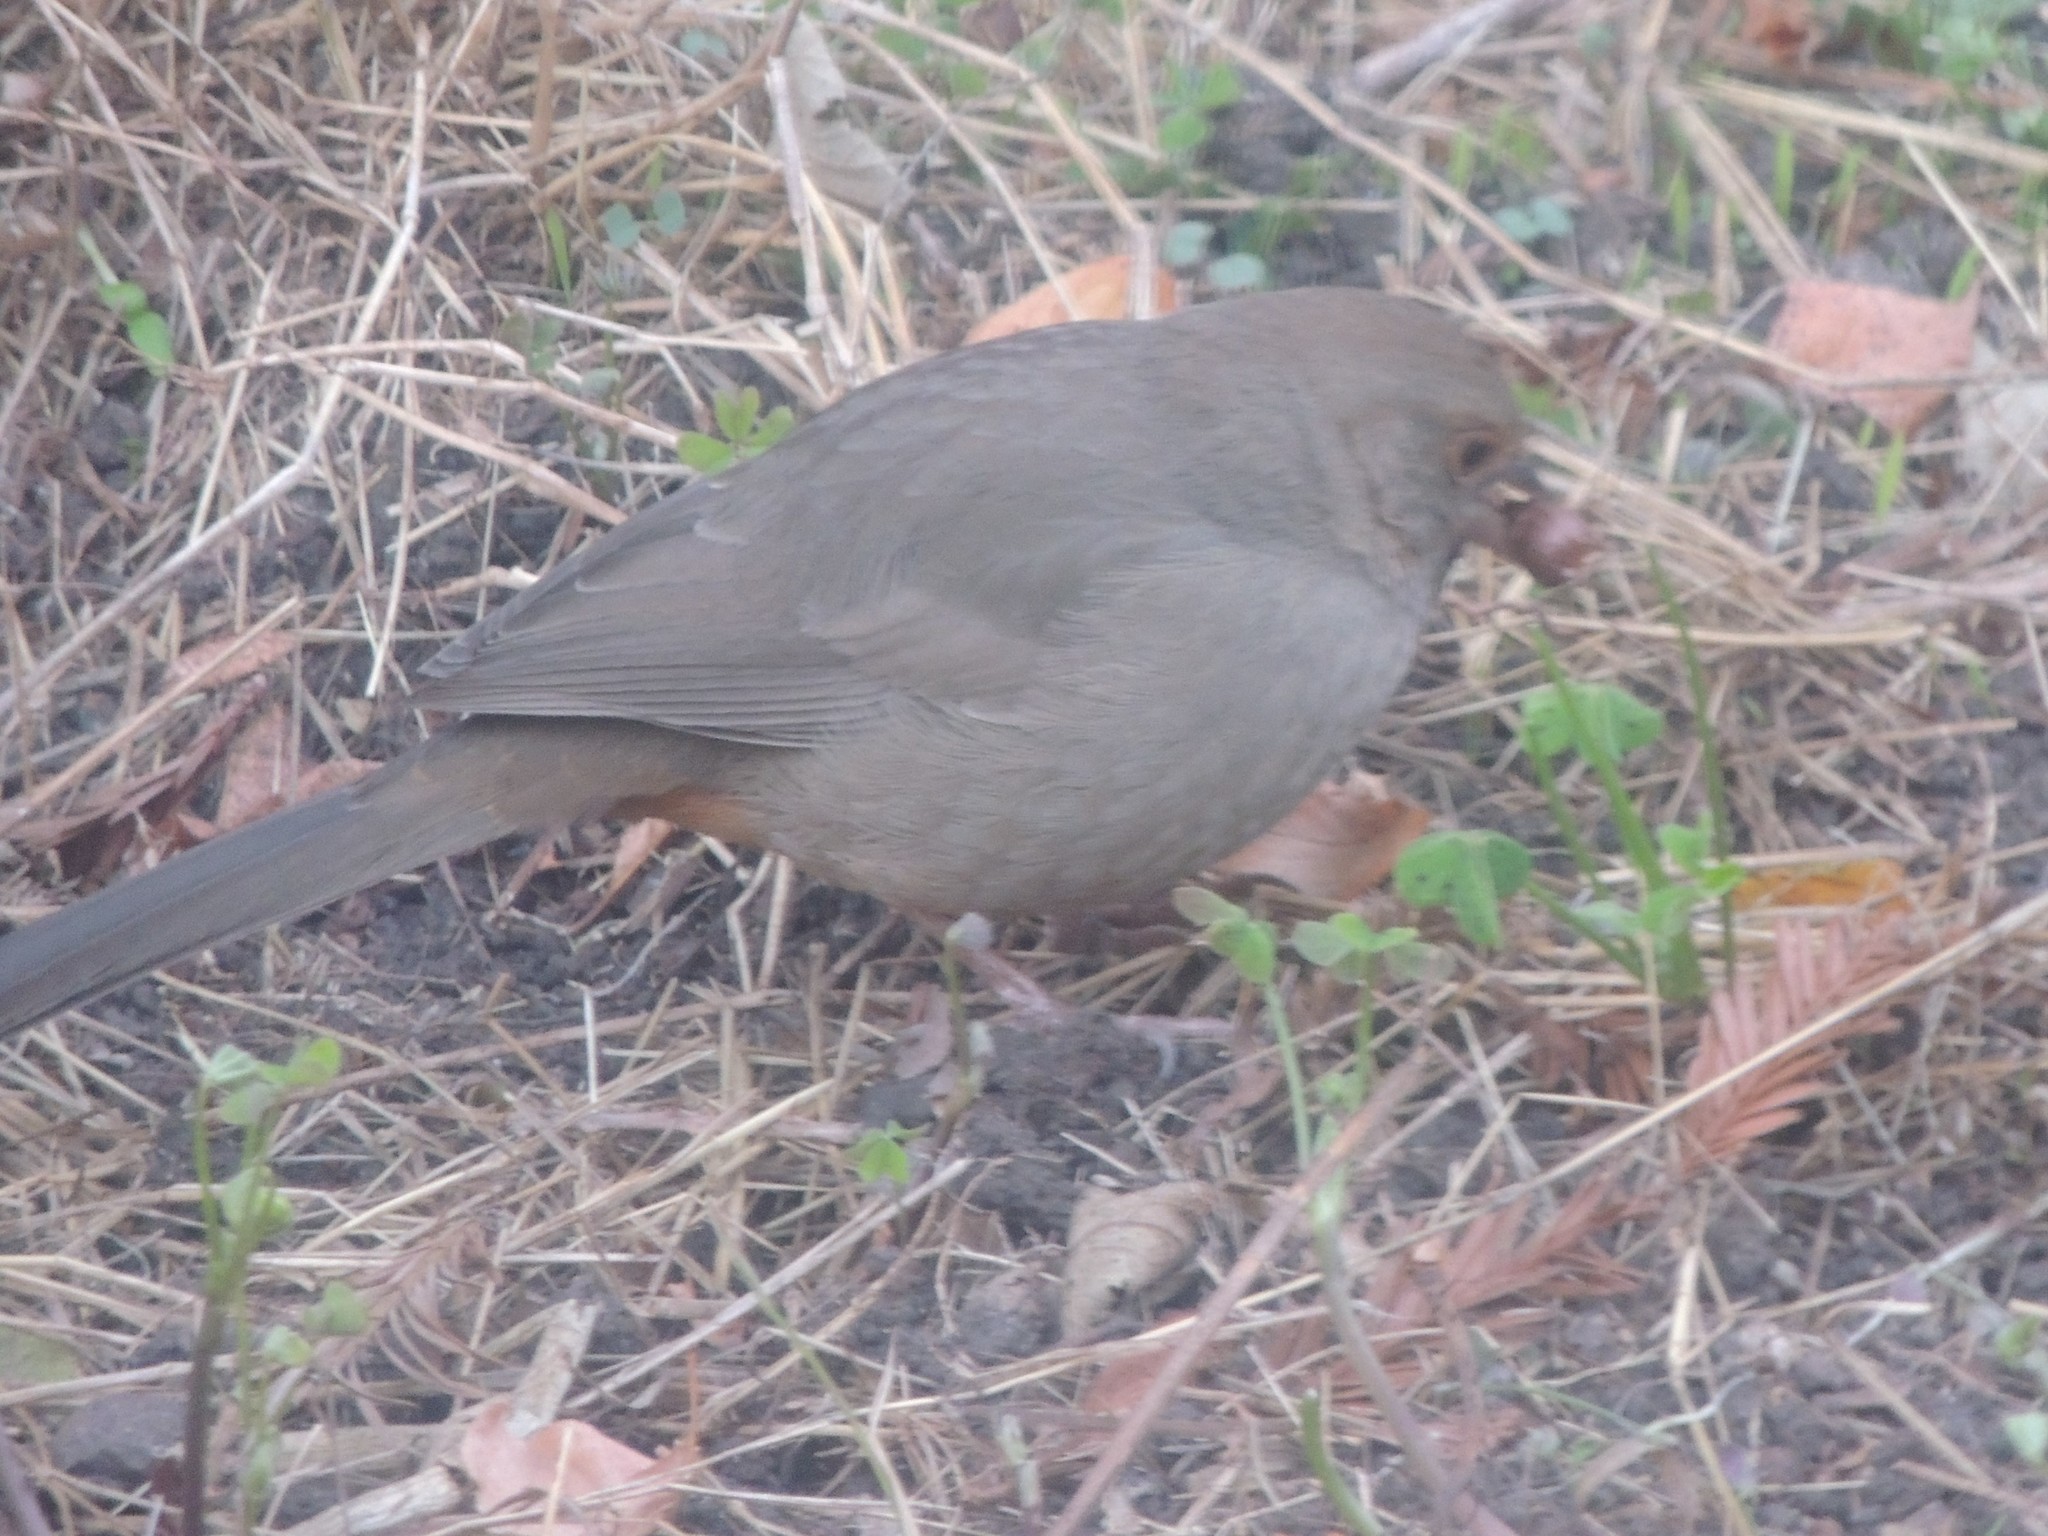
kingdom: Animalia
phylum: Chordata
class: Aves
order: Passeriformes
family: Passerellidae
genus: Melozone
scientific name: Melozone crissalis
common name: California towhee
